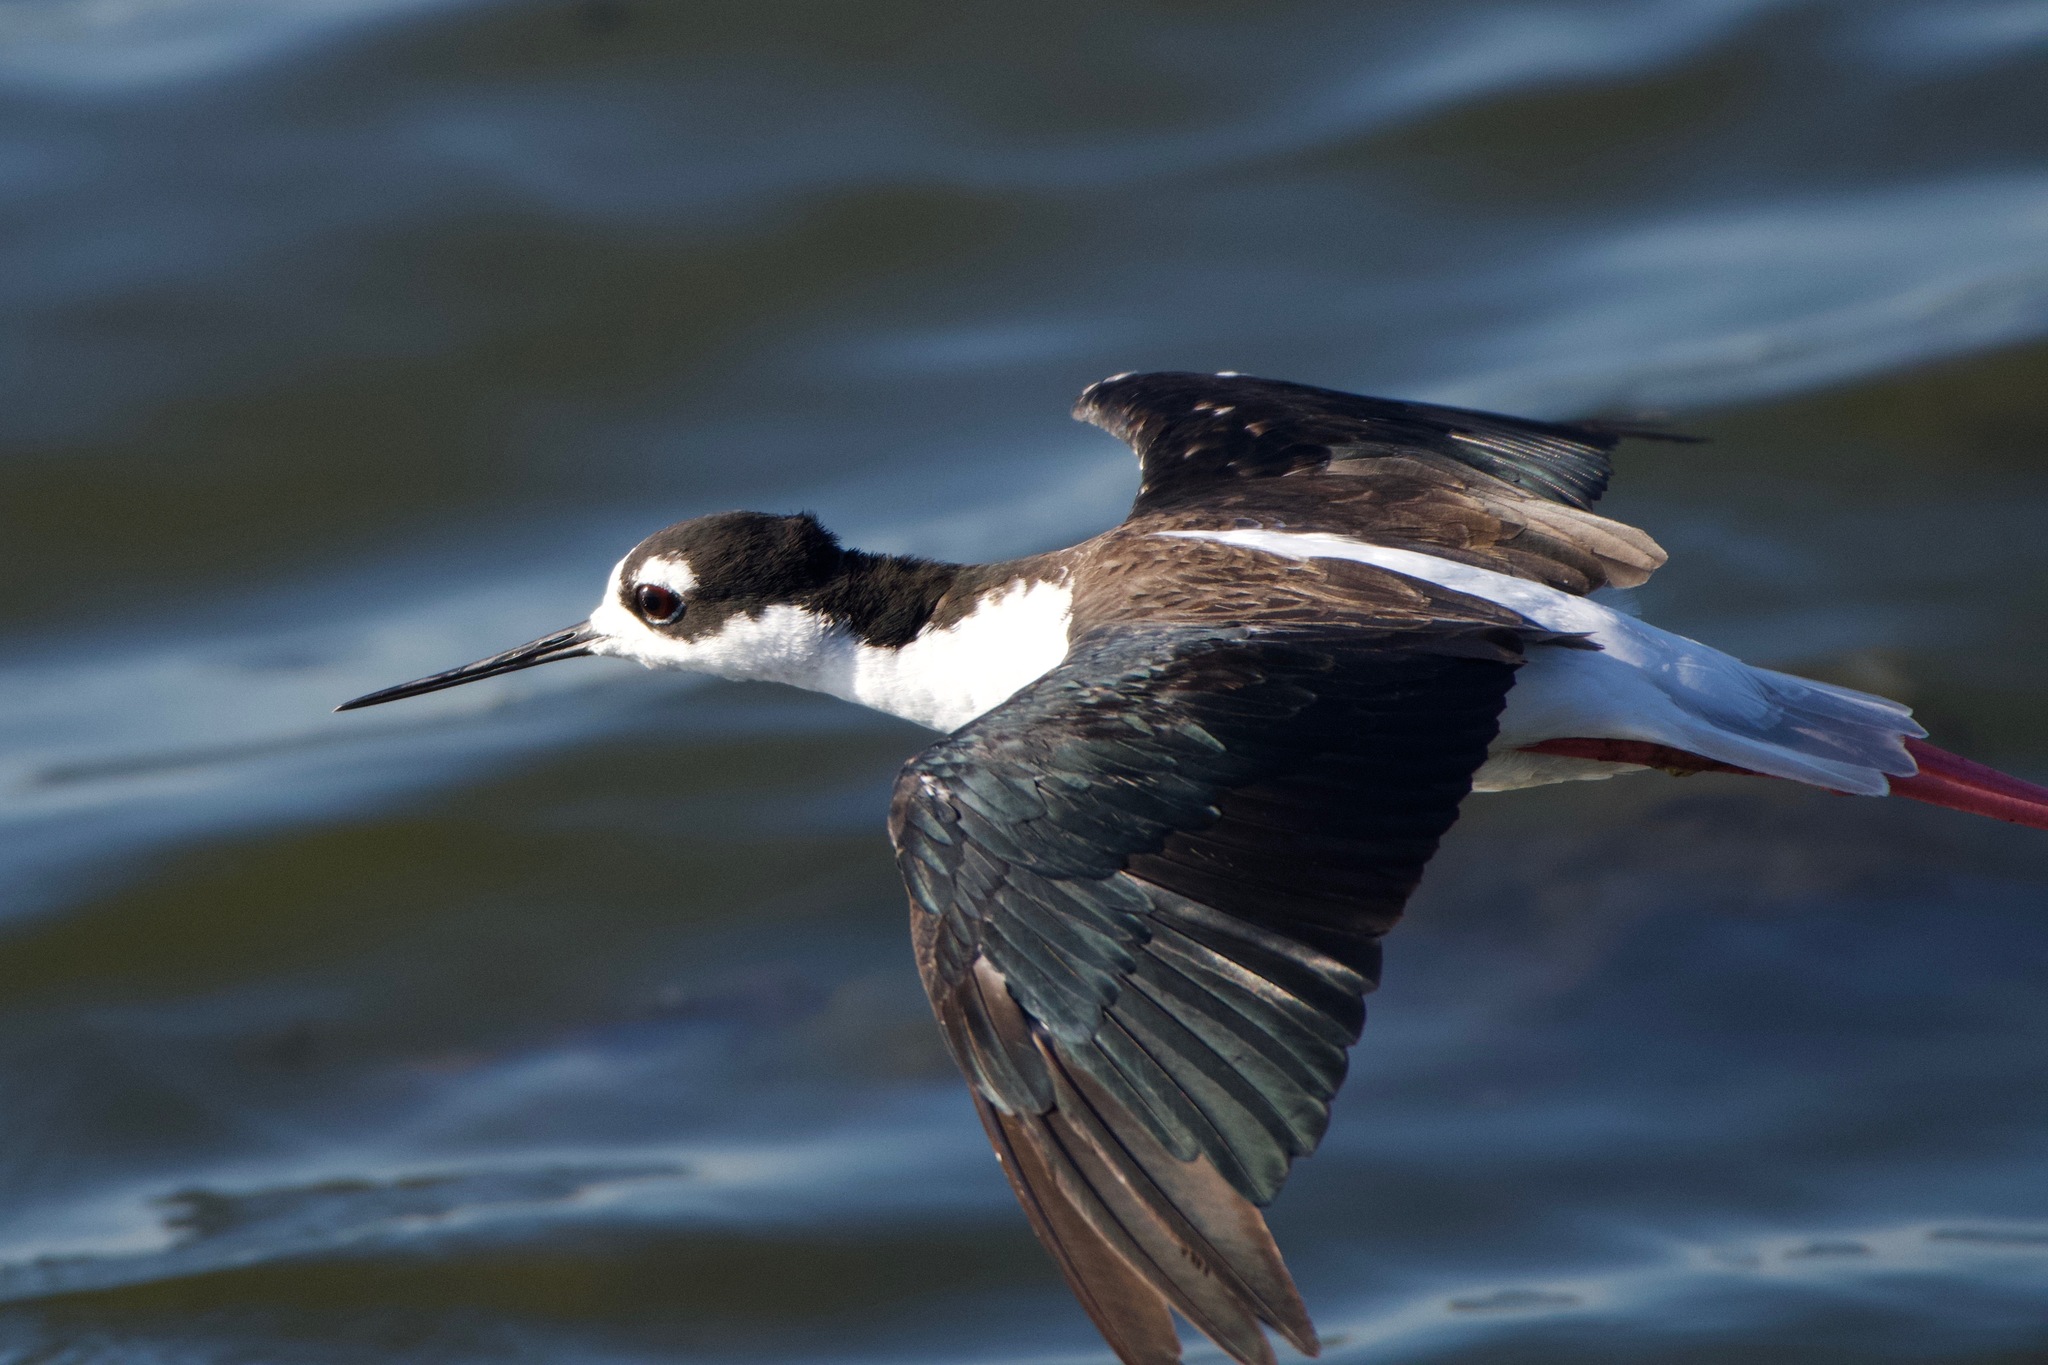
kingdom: Animalia
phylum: Chordata
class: Aves
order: Charadriiformes
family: Recurvirostridae
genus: Himantopus
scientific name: Himantopus mexicanus
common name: Black-necked stilt
